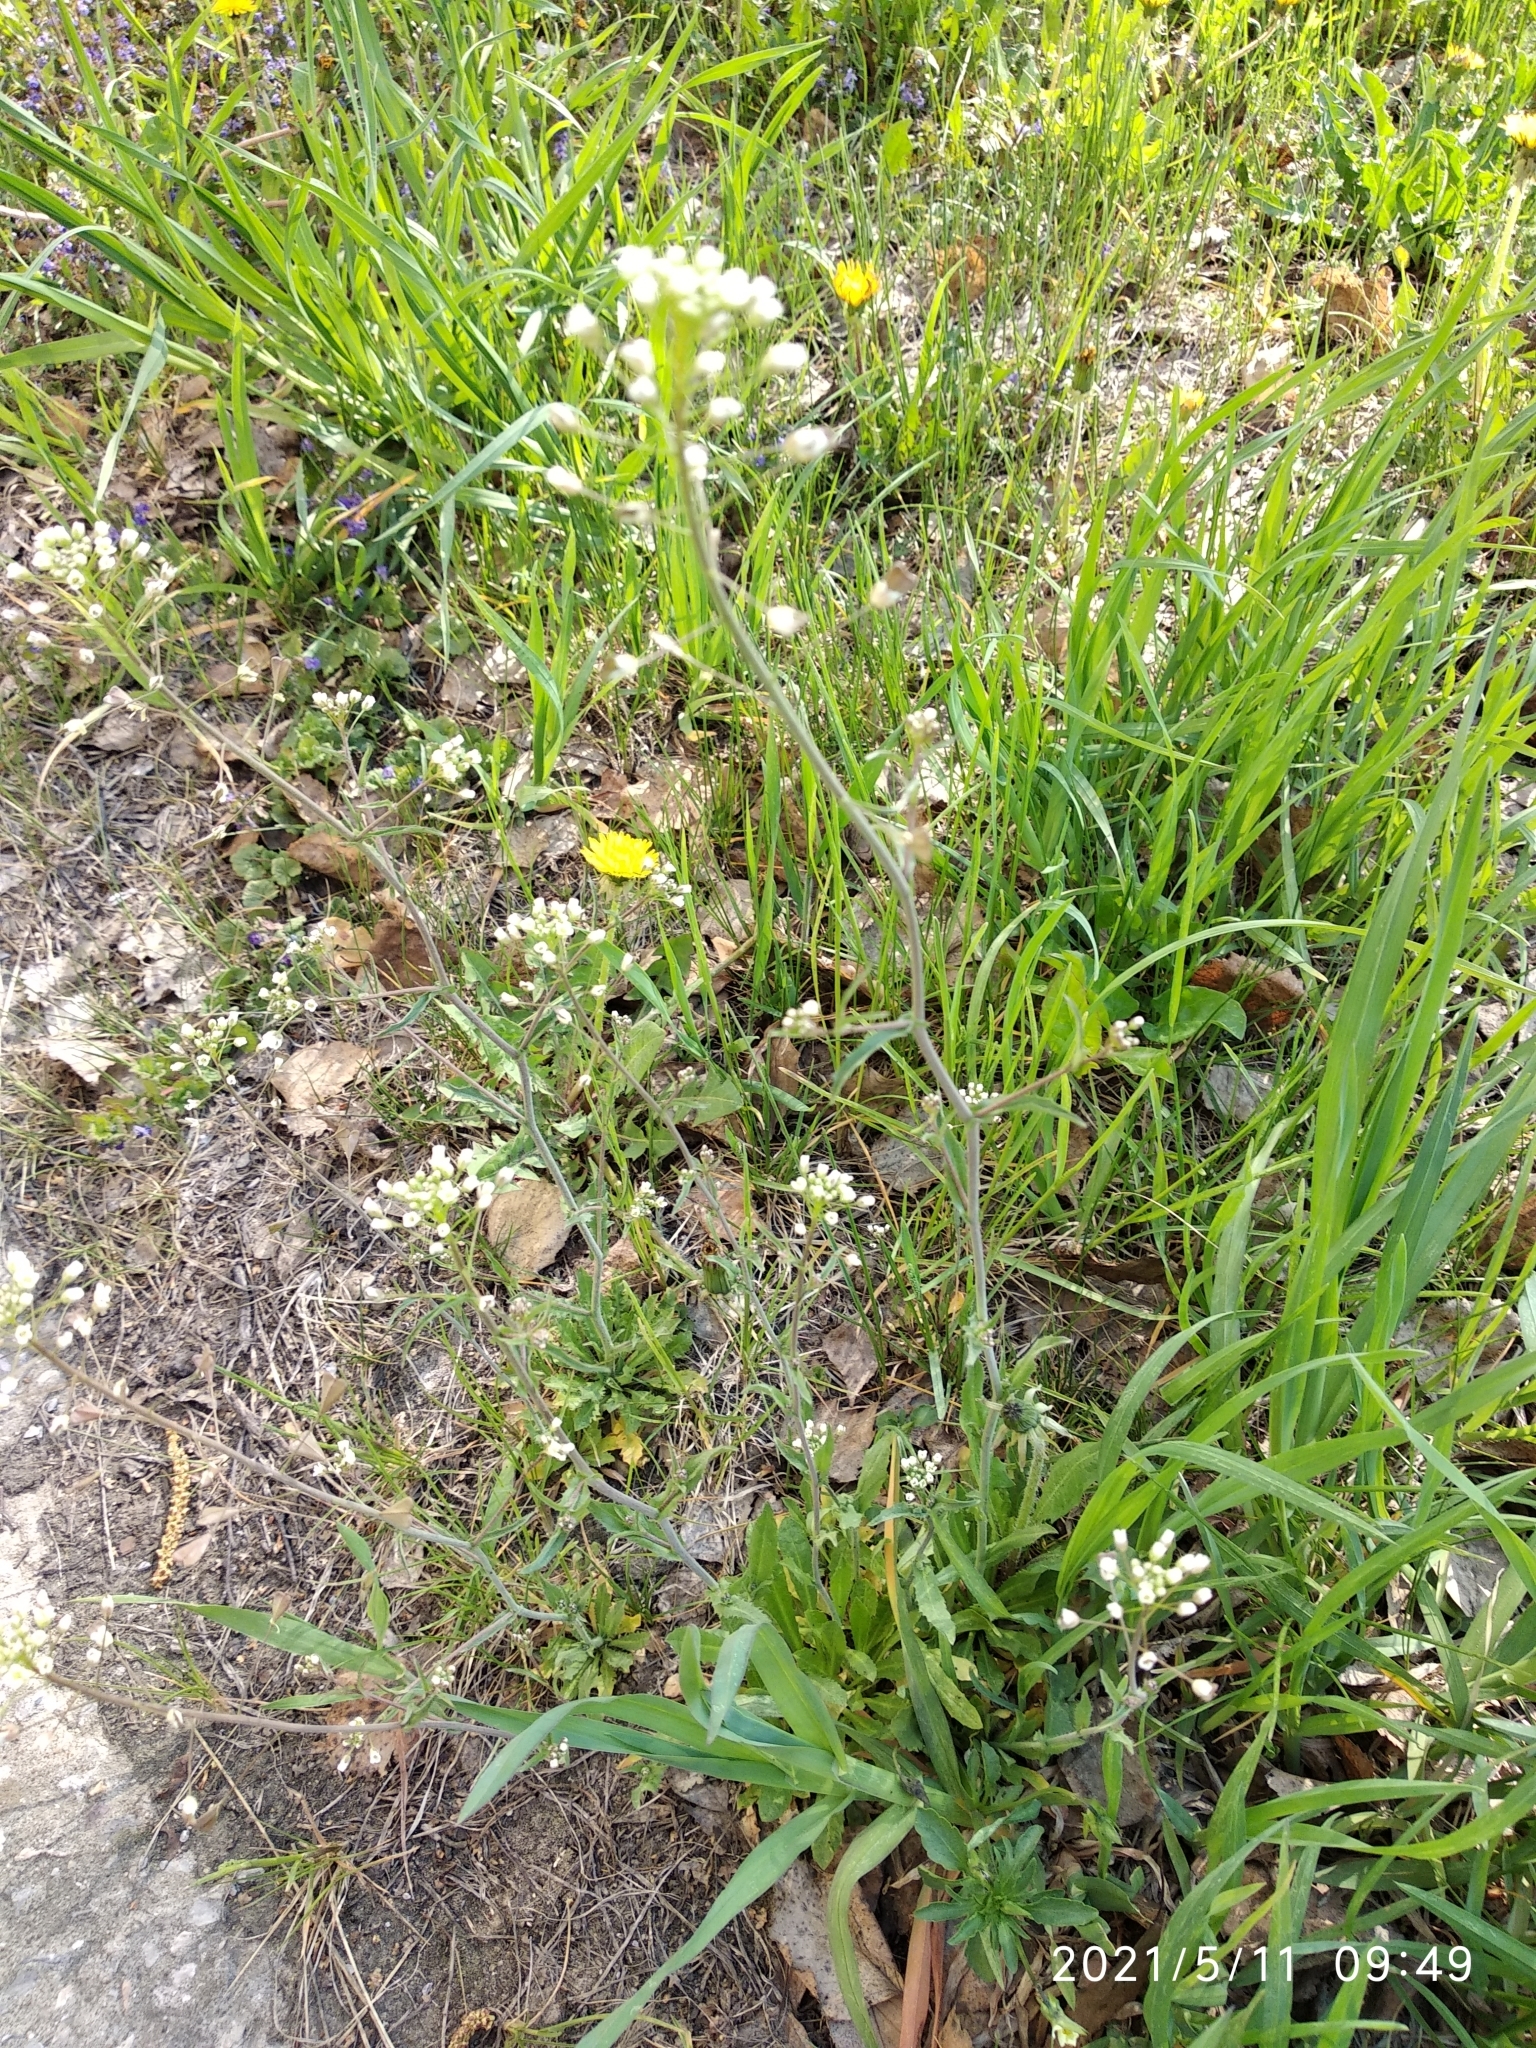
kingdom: Plantae
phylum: Tracheophyta
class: Magnoliopsida
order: Brassicales
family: Brassicaceae
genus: Capsella
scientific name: Capsella bursa-pastoris
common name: Shepherd's purse
